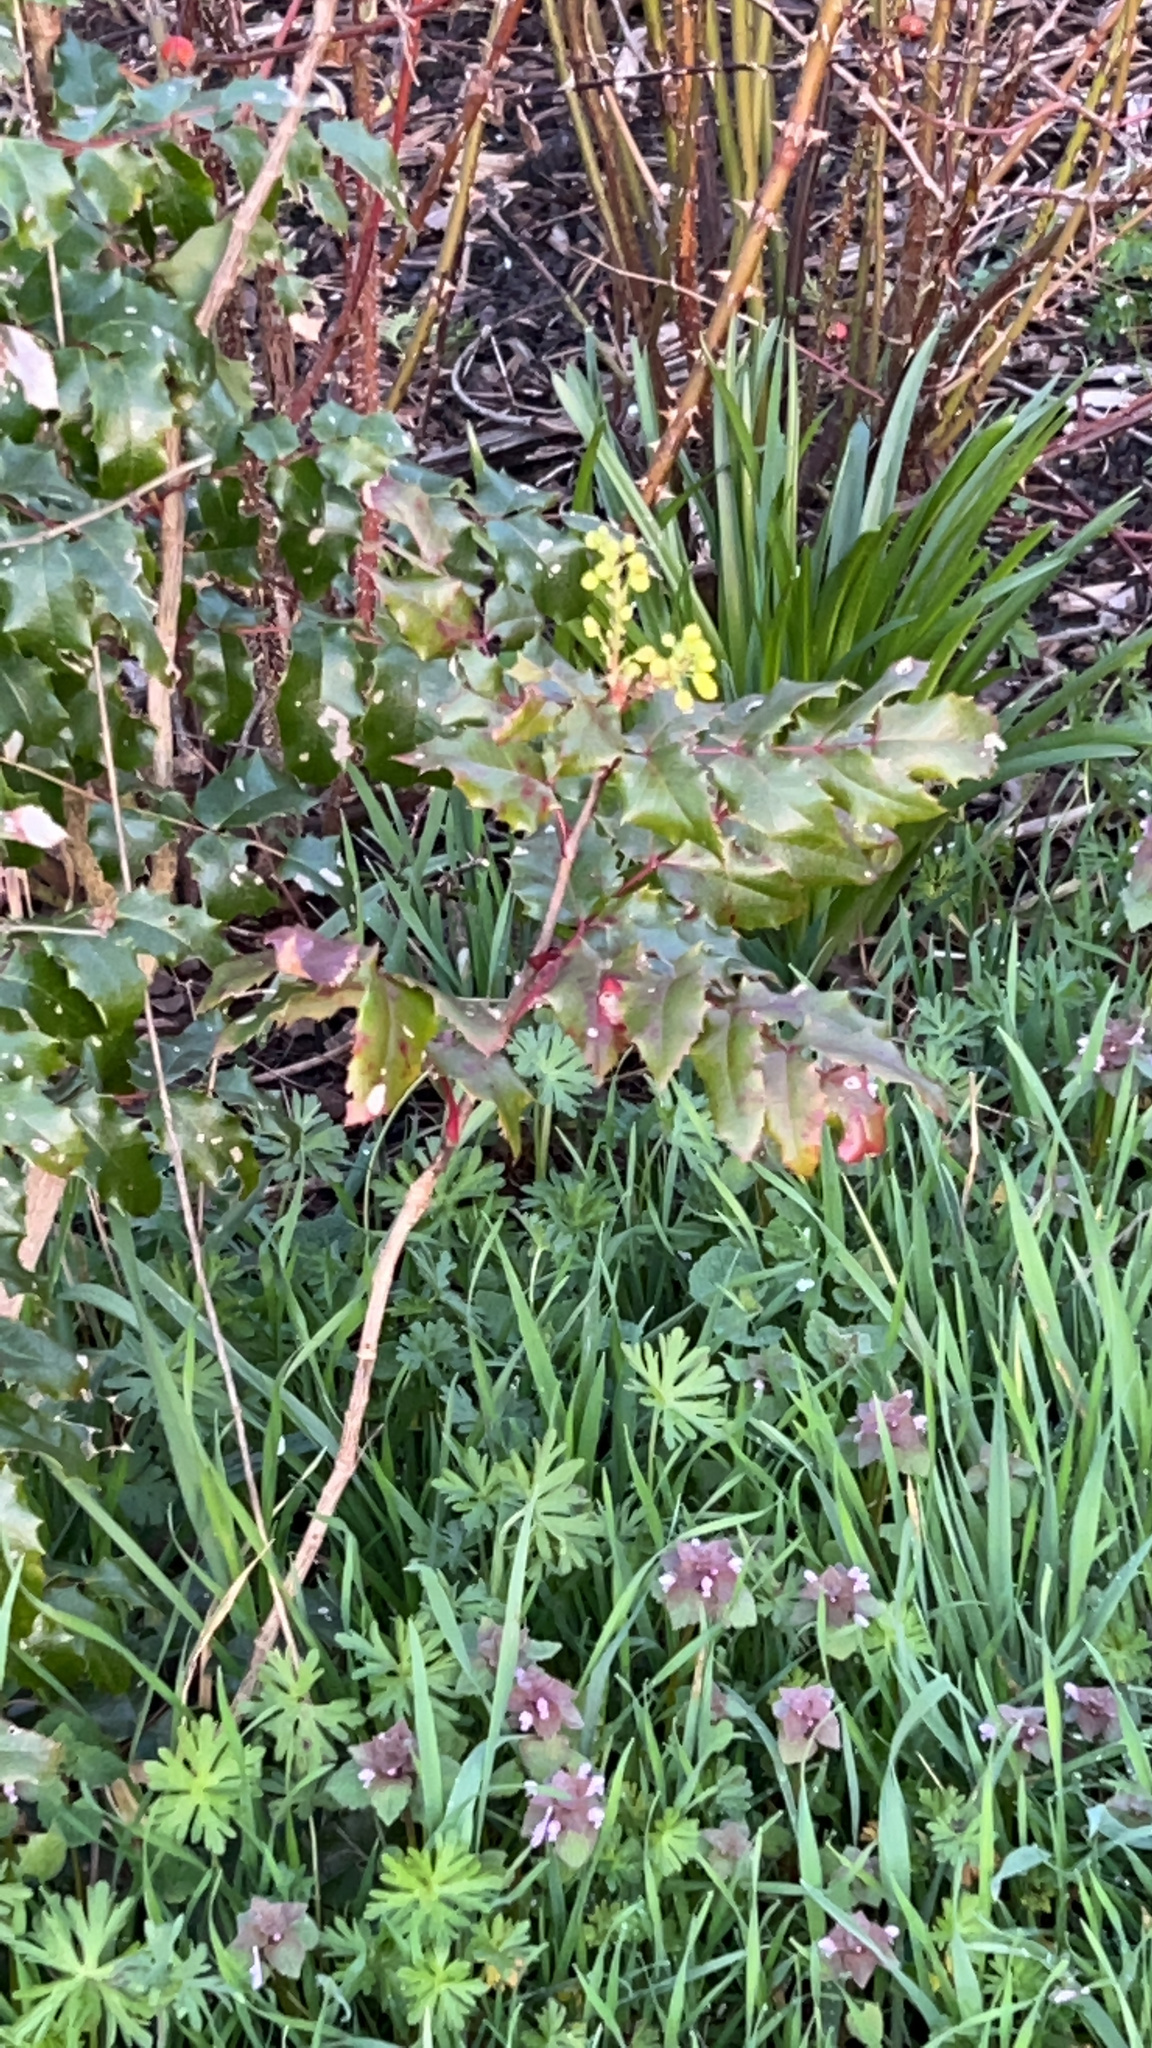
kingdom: Plantae
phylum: Tracheophyta
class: Magnoliopsida
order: Ranunculales
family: Berberidaceae
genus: Mahonia
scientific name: Mahonia aquifolium
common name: Oregon-grape
